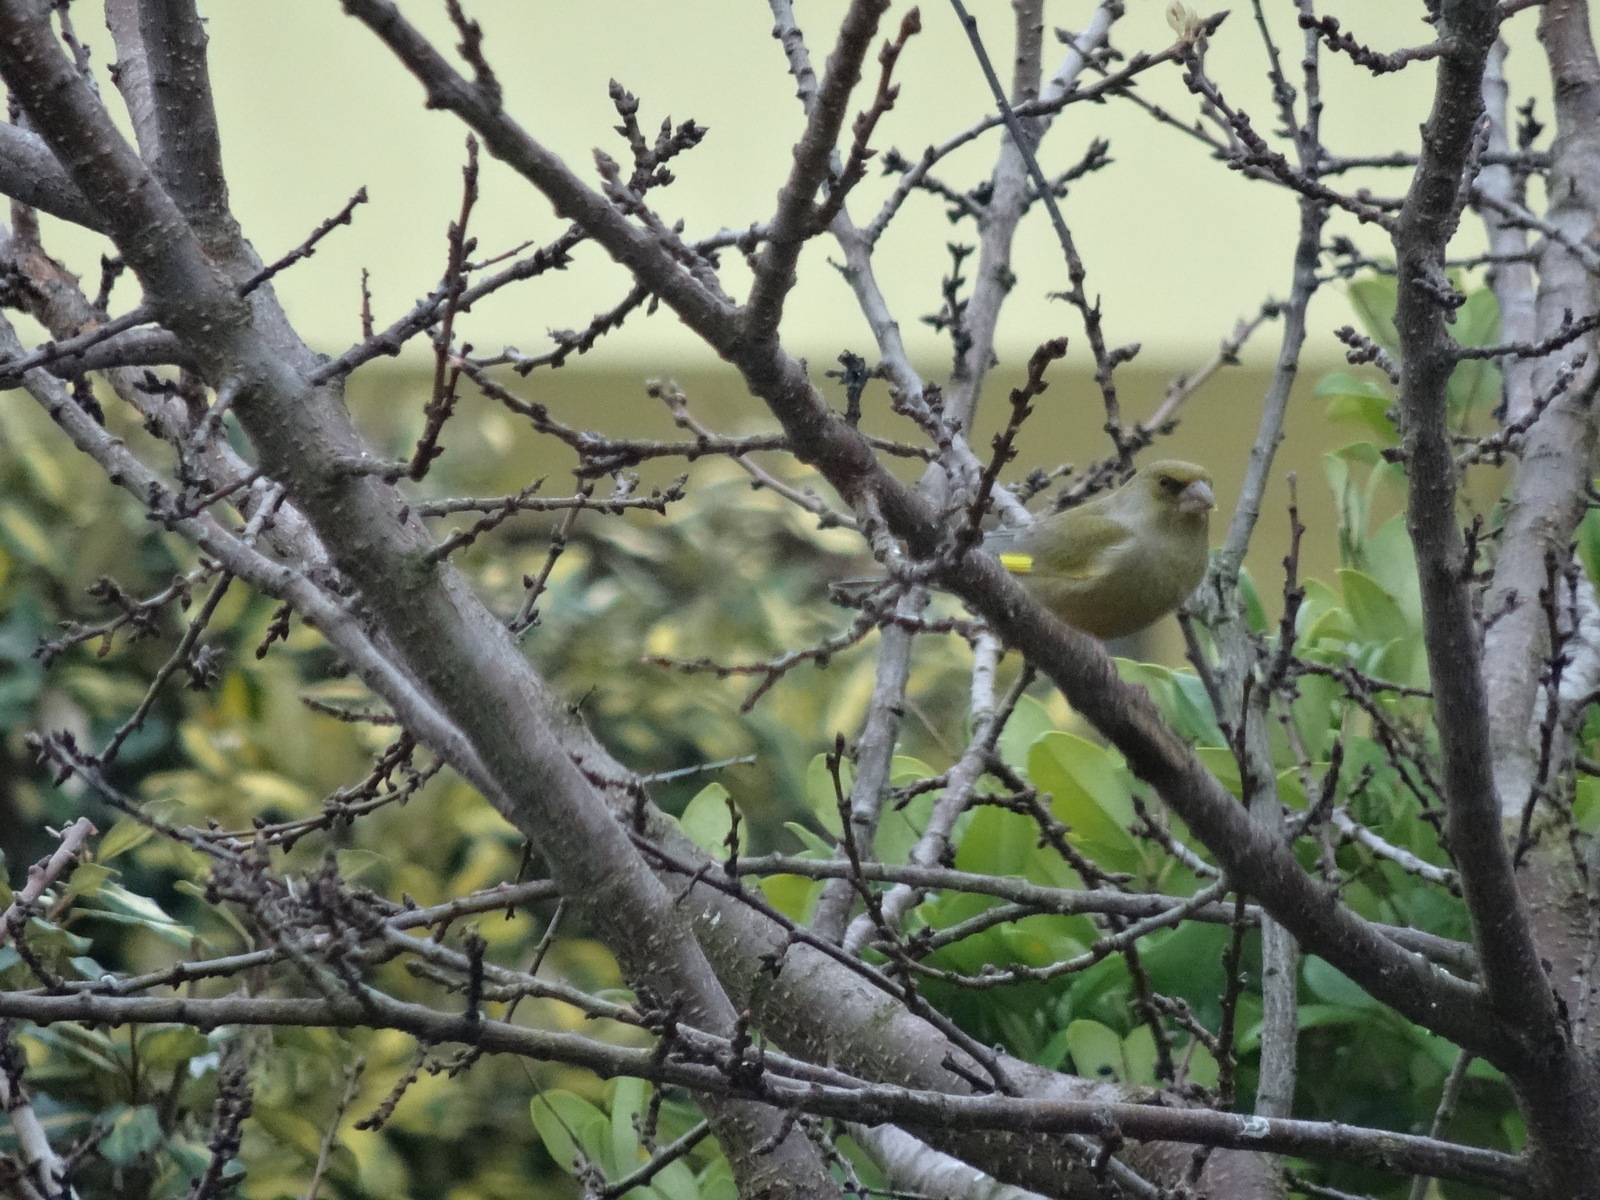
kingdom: Plantae
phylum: Tracheophyta
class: Liliopsida
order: Poales
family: Poaceae
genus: Chloris
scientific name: Chloris chloris
